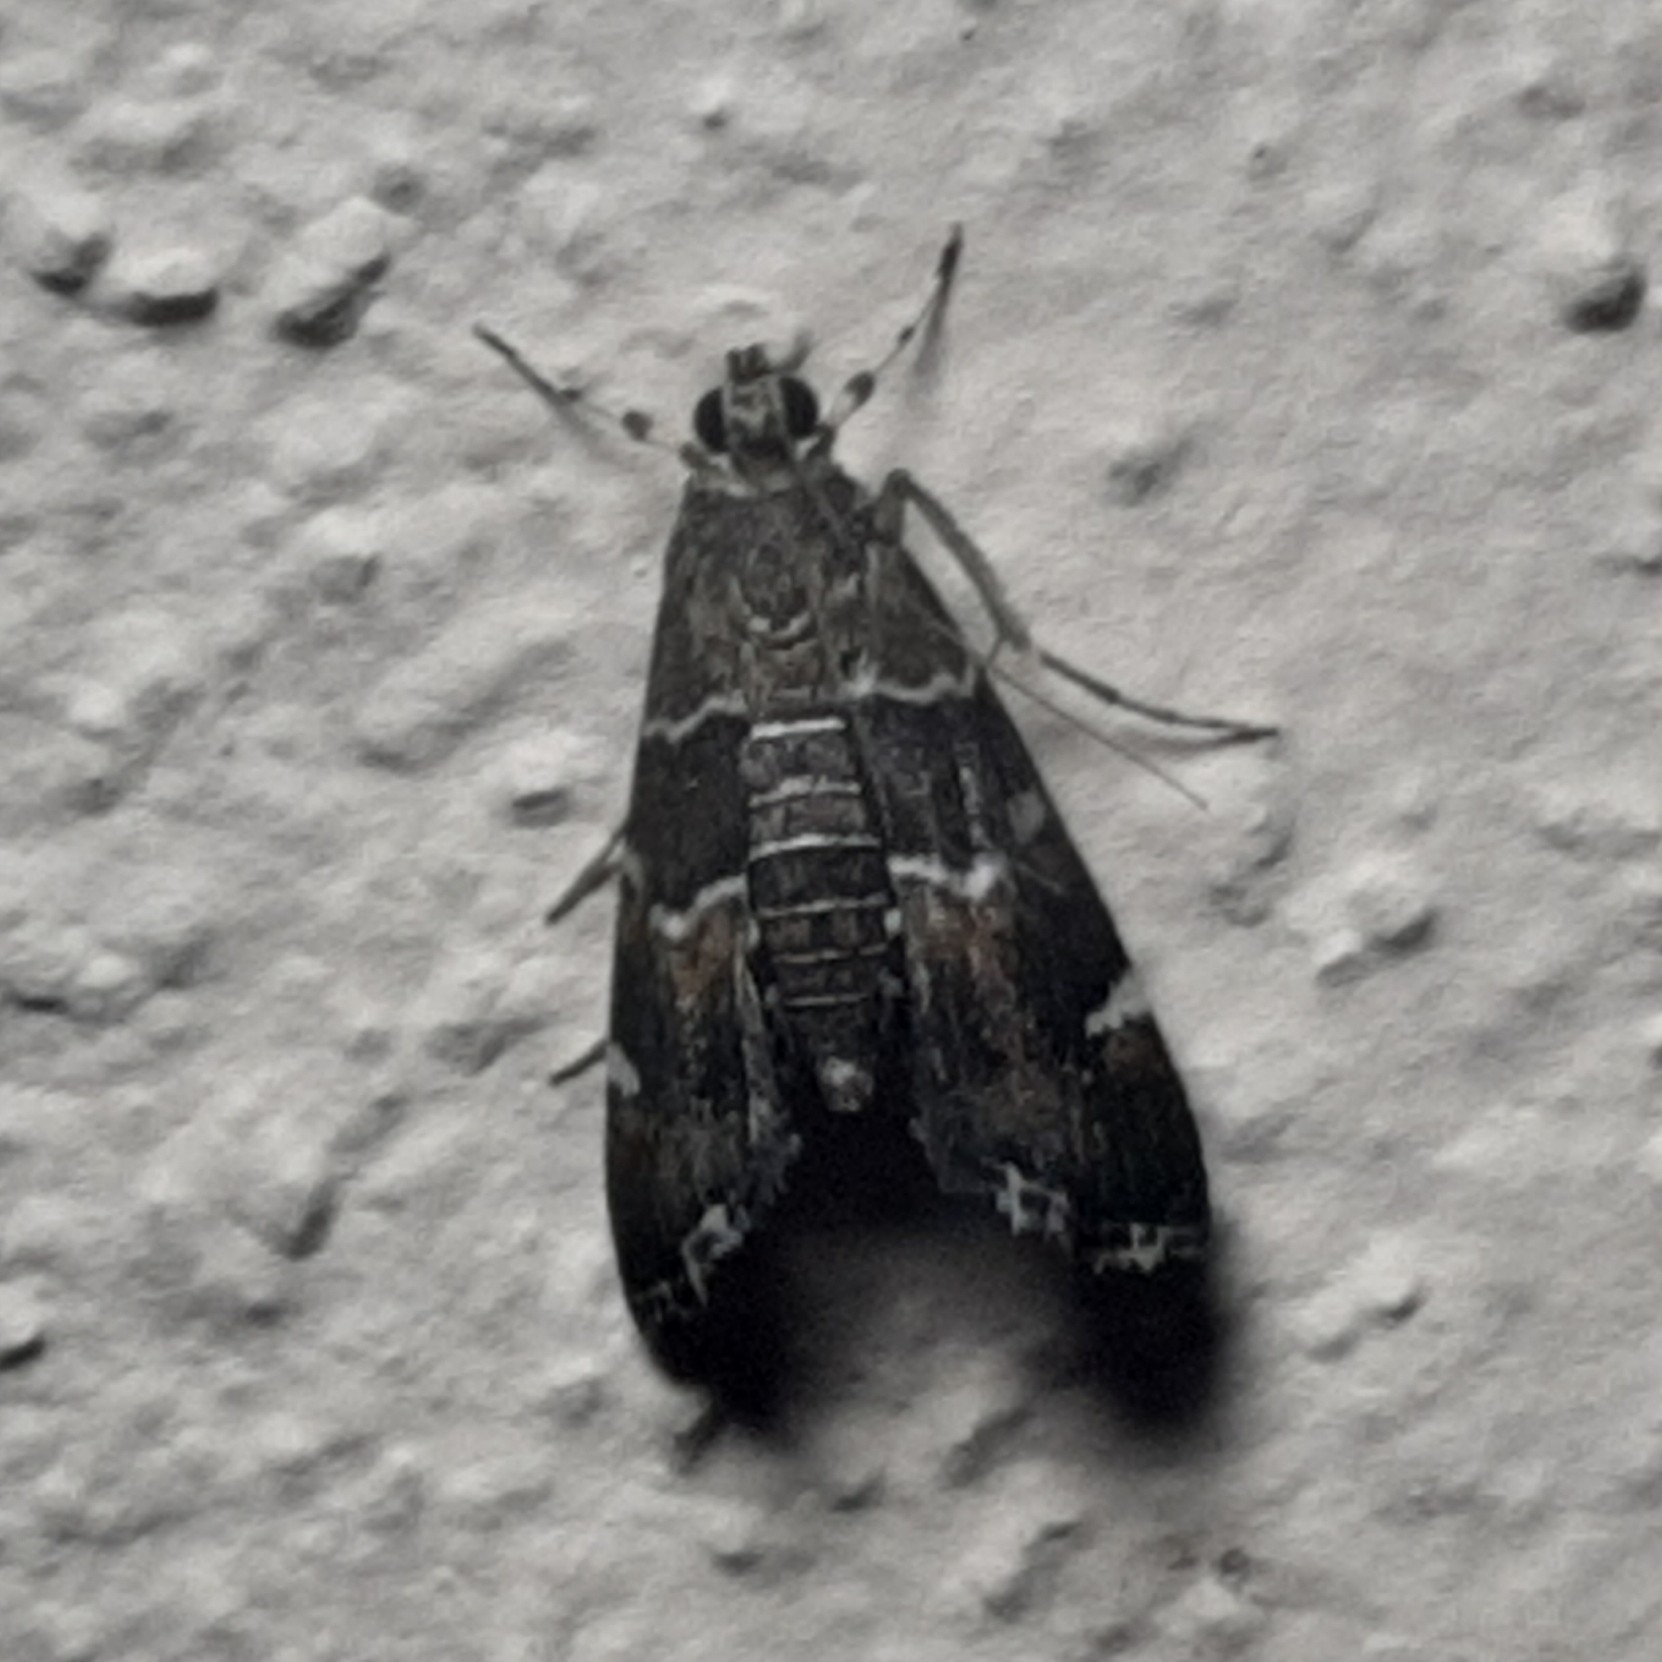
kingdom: Animalia
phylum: Arthropoda
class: Insecta
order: Lepidoptera
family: Crambidae
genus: Hymenia
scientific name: Hymenia perspectalis
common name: Spotted beet webworm
